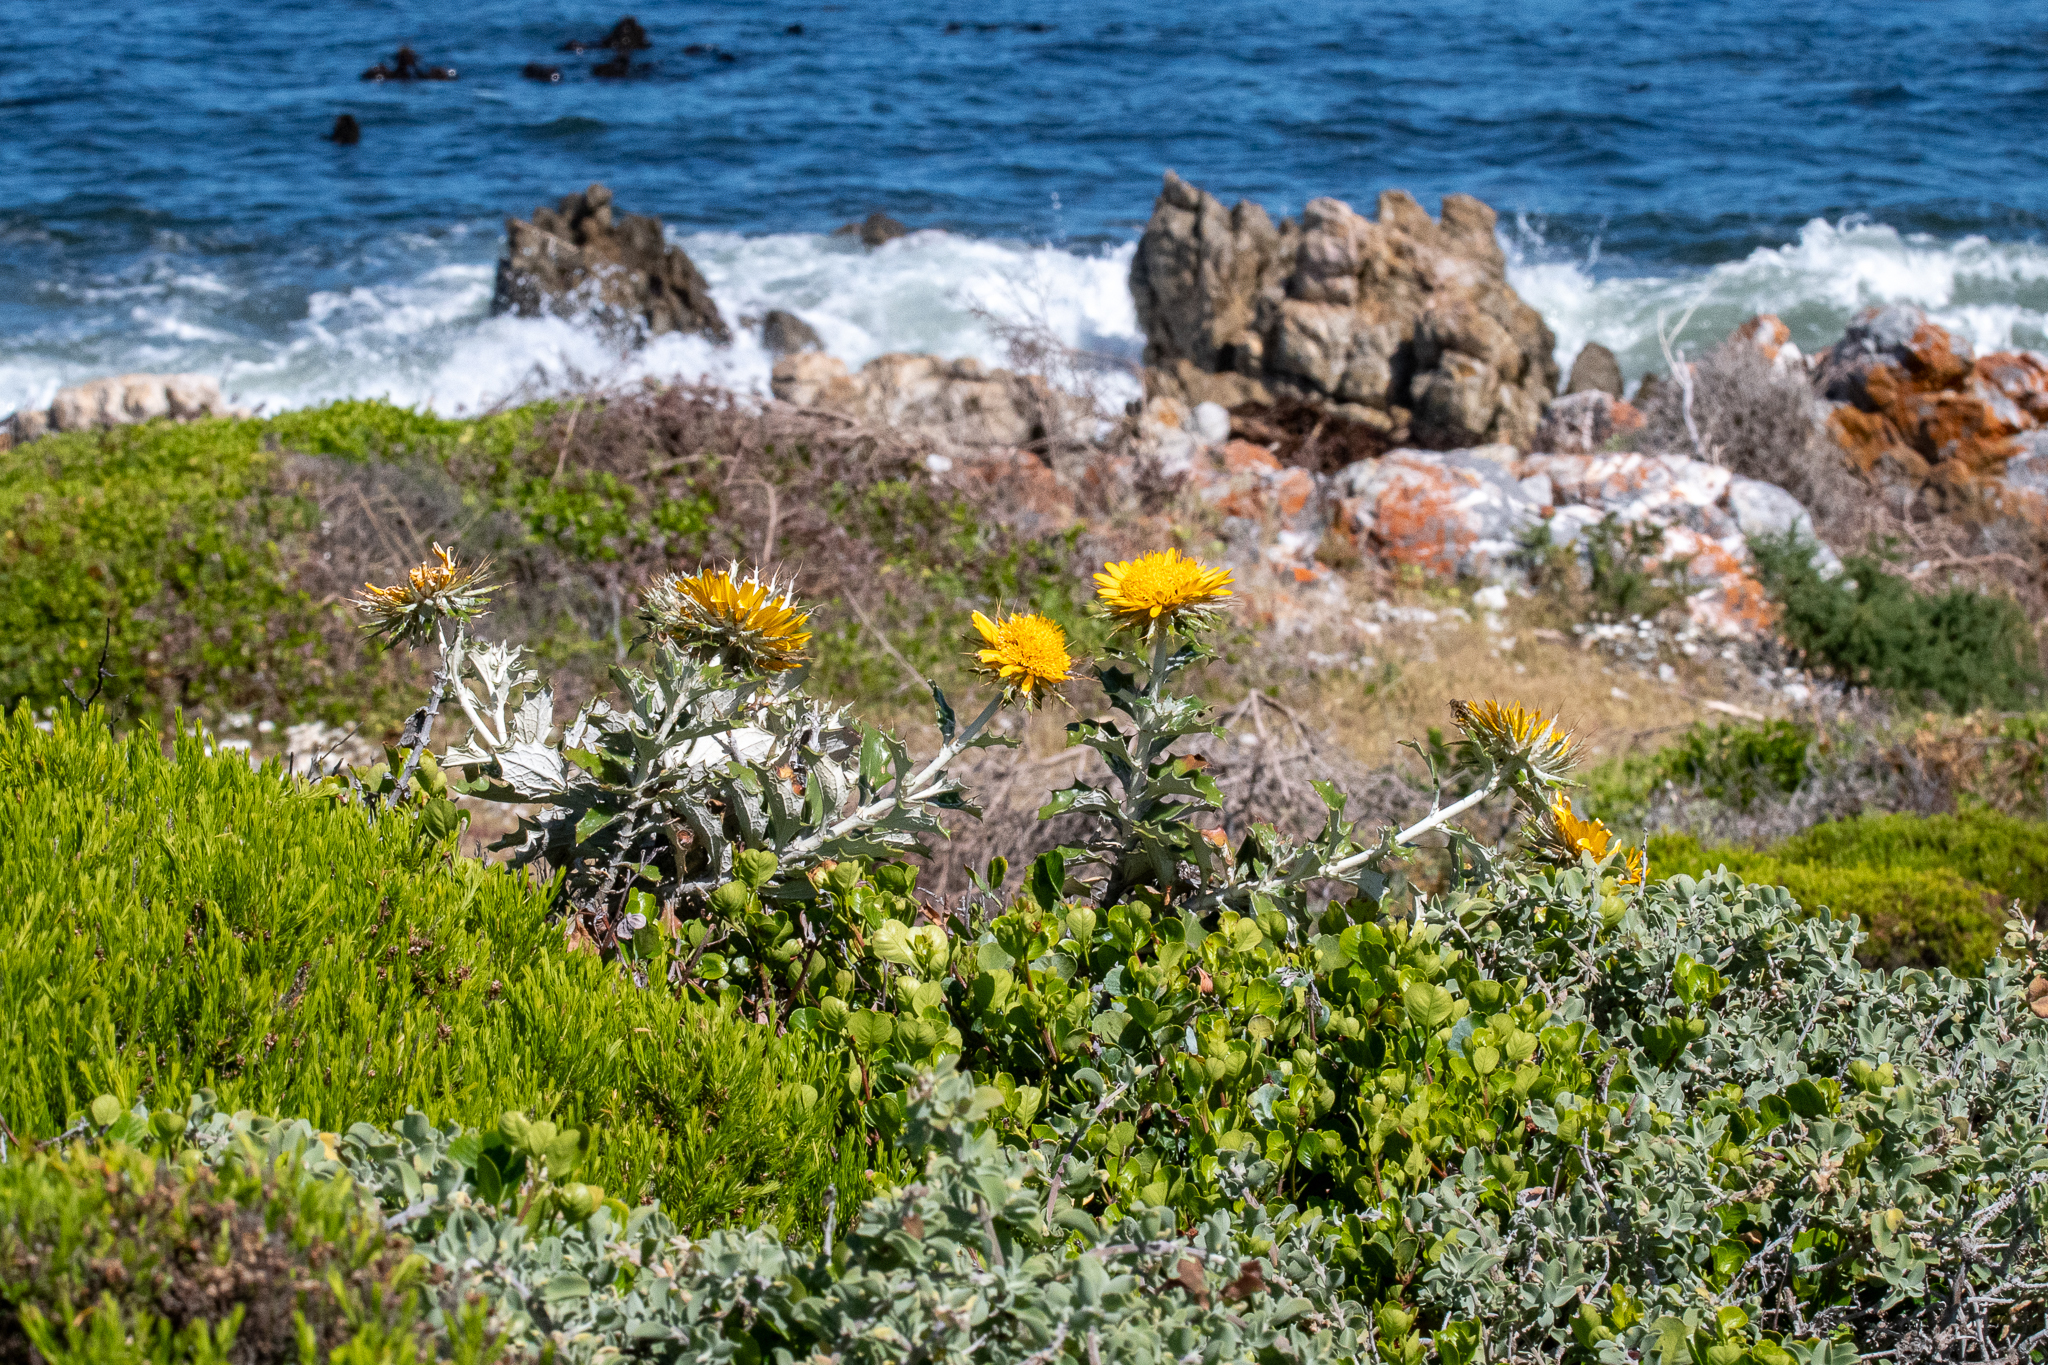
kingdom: Plantae
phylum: Tracheophyta
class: Magnoliopsida
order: Asterales
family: Asteraceae
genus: Berkheya
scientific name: Berkheya barbata
